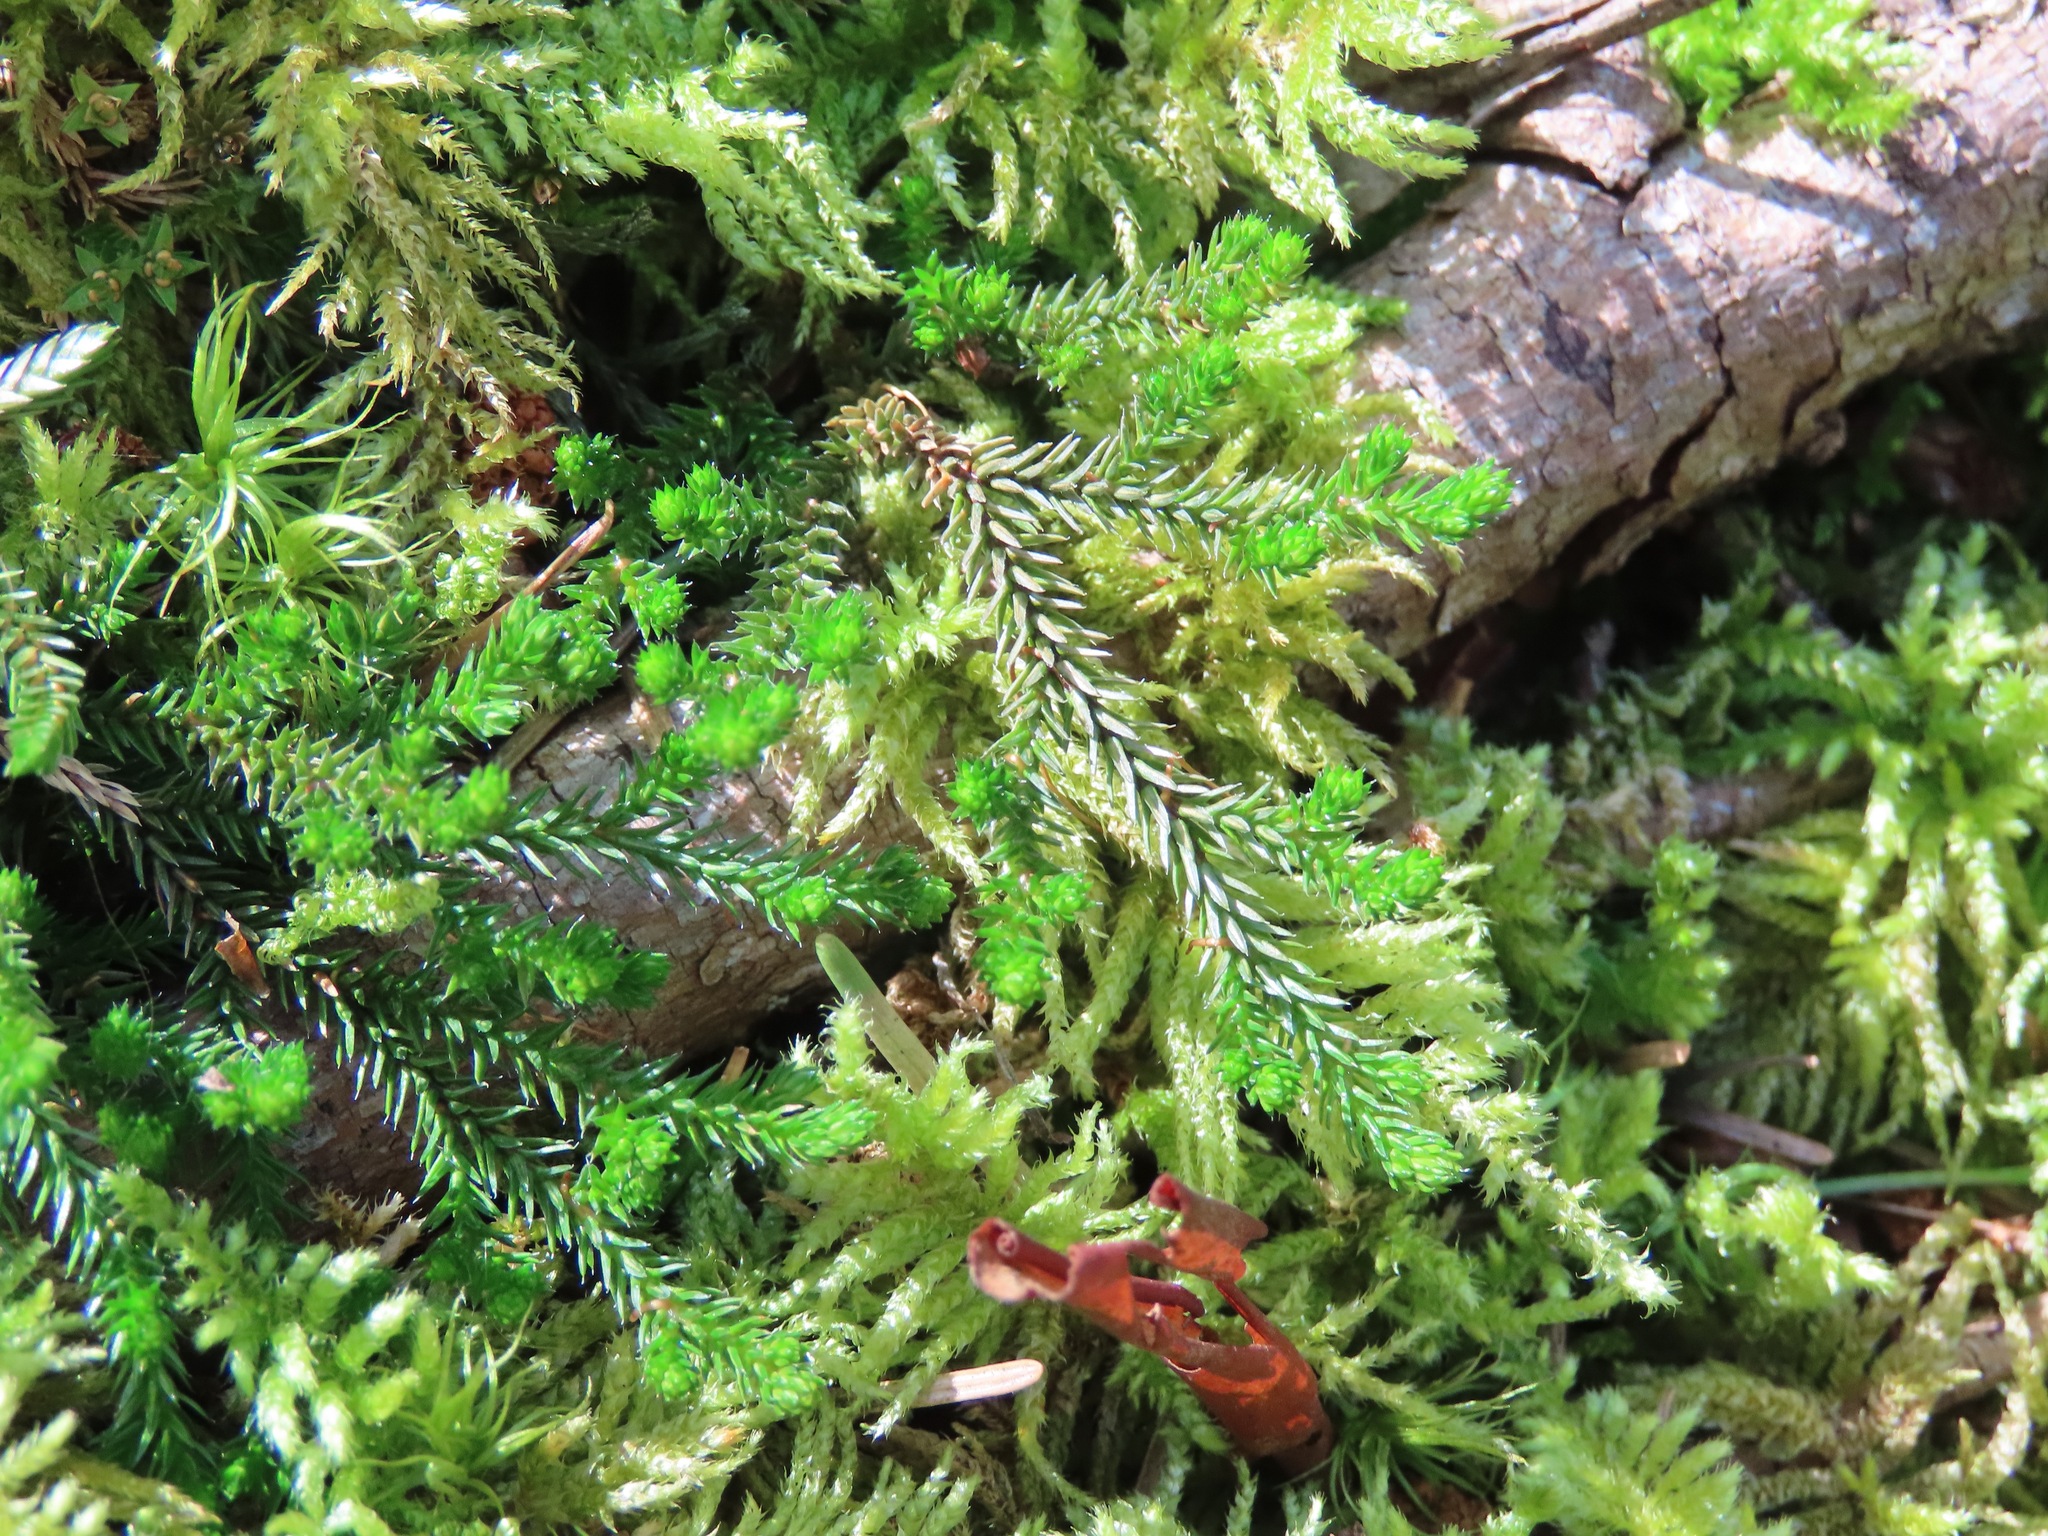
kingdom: Plantae
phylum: Tracheophyta
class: Lycopodiopsida
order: Selaginellales
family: Selaginellaceae
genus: Selaginella
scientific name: Selaginella wallacei
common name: Wallace's selaginella
